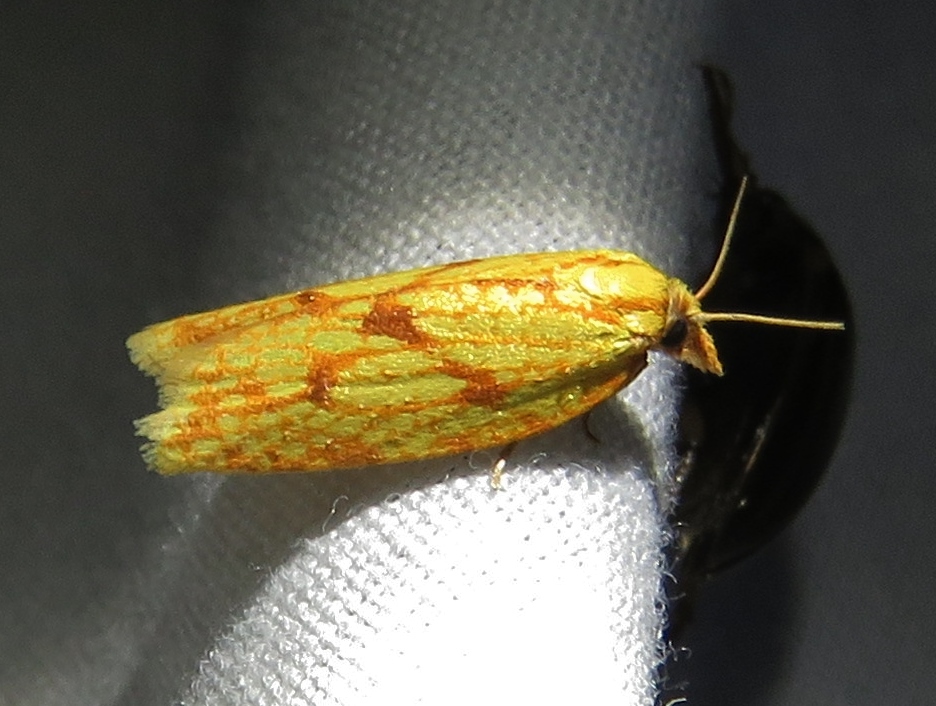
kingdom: Animalia
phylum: Arthropoda
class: Insecta
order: Lepidoptera
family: Tortricidae
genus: Sparganothis
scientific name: Sparganothis sulfureana
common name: Sparganothis fruitworm moth
